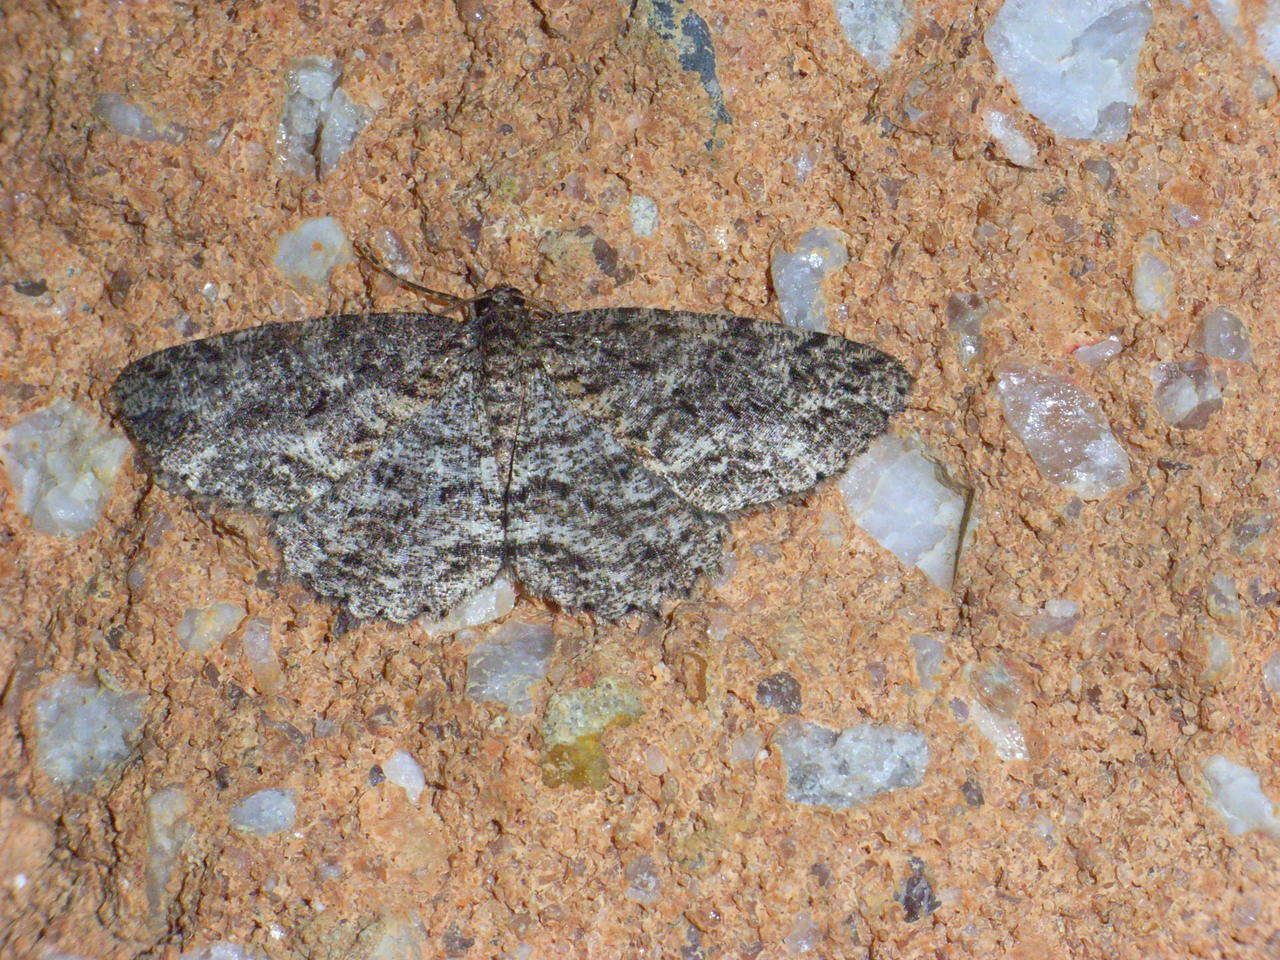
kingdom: Animalia
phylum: Arthropoda
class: Insecta
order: Lepidoptera
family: Geometridae
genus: Ectropis
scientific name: Ectropis fractaria
